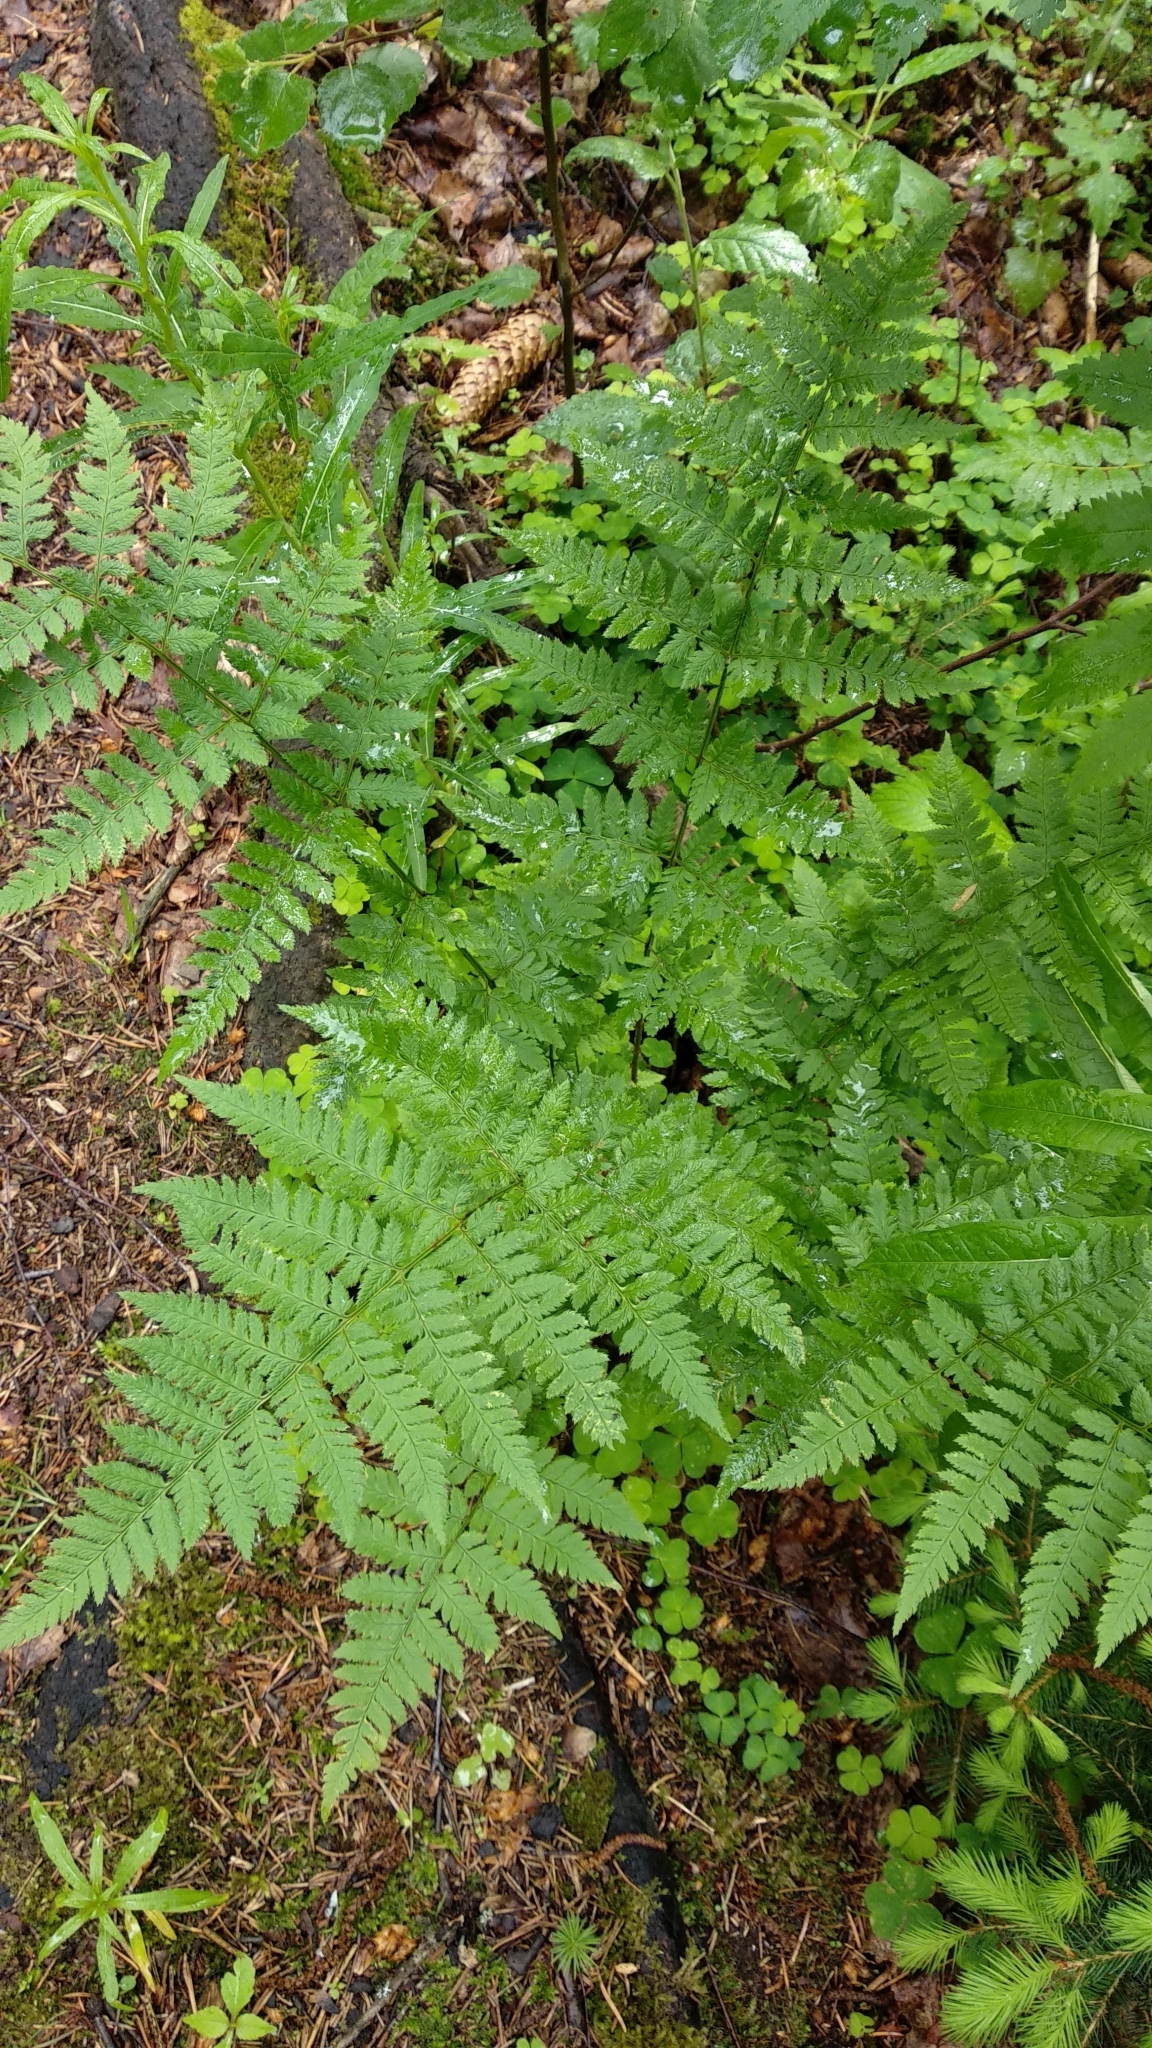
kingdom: Plantae
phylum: Tracheophyta
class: Polypodiopsida
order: Polypodiales
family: Dryopteridaceae
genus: Dryopteris
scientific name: Dryopteris carthusiana
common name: Narrow buckler-fern
